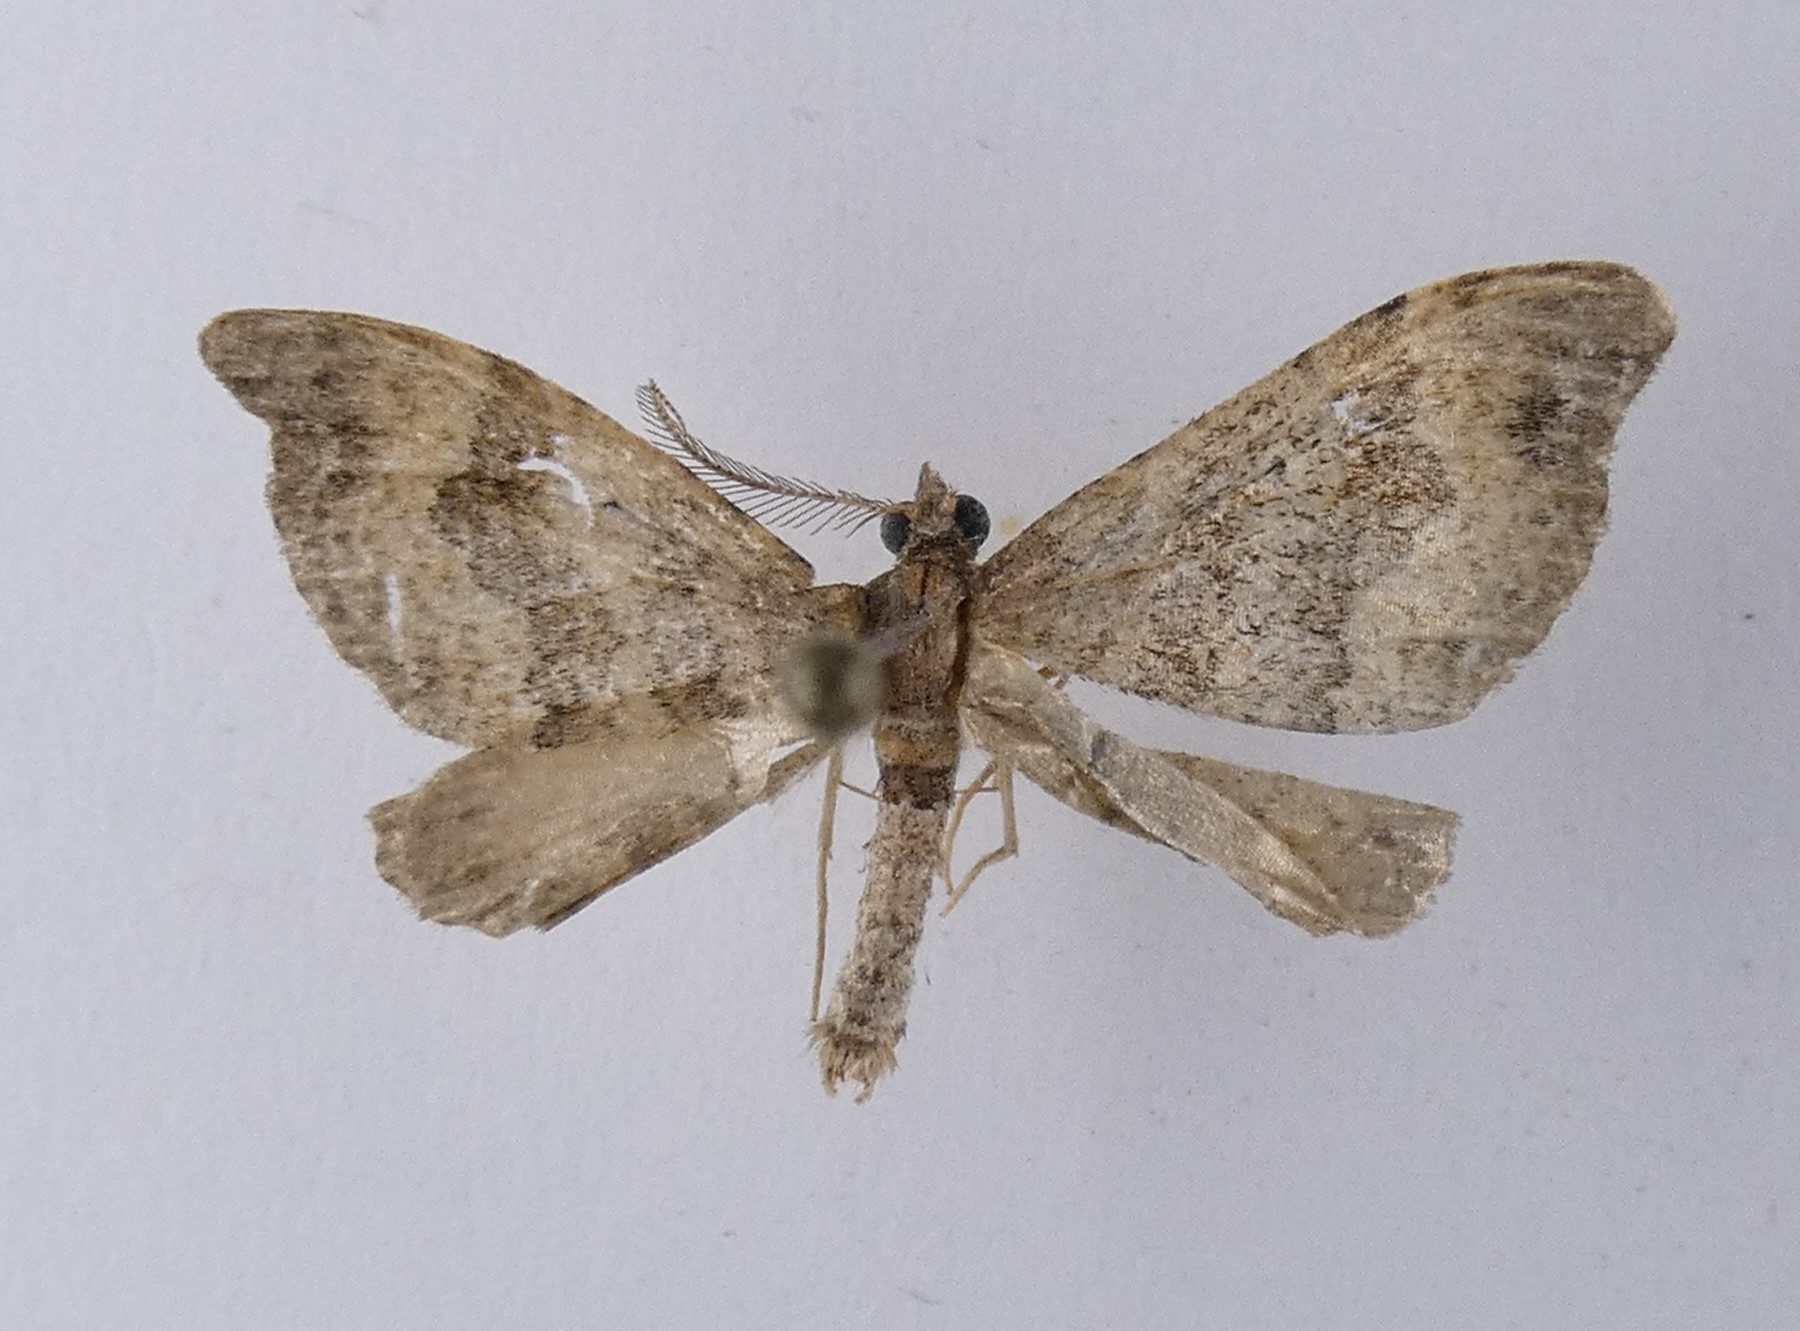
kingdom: Animalia
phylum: Arthropoda
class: Insecta
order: Lepidoptera
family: Geometridae
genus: Homodotis
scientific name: Homodotis megaspilata
